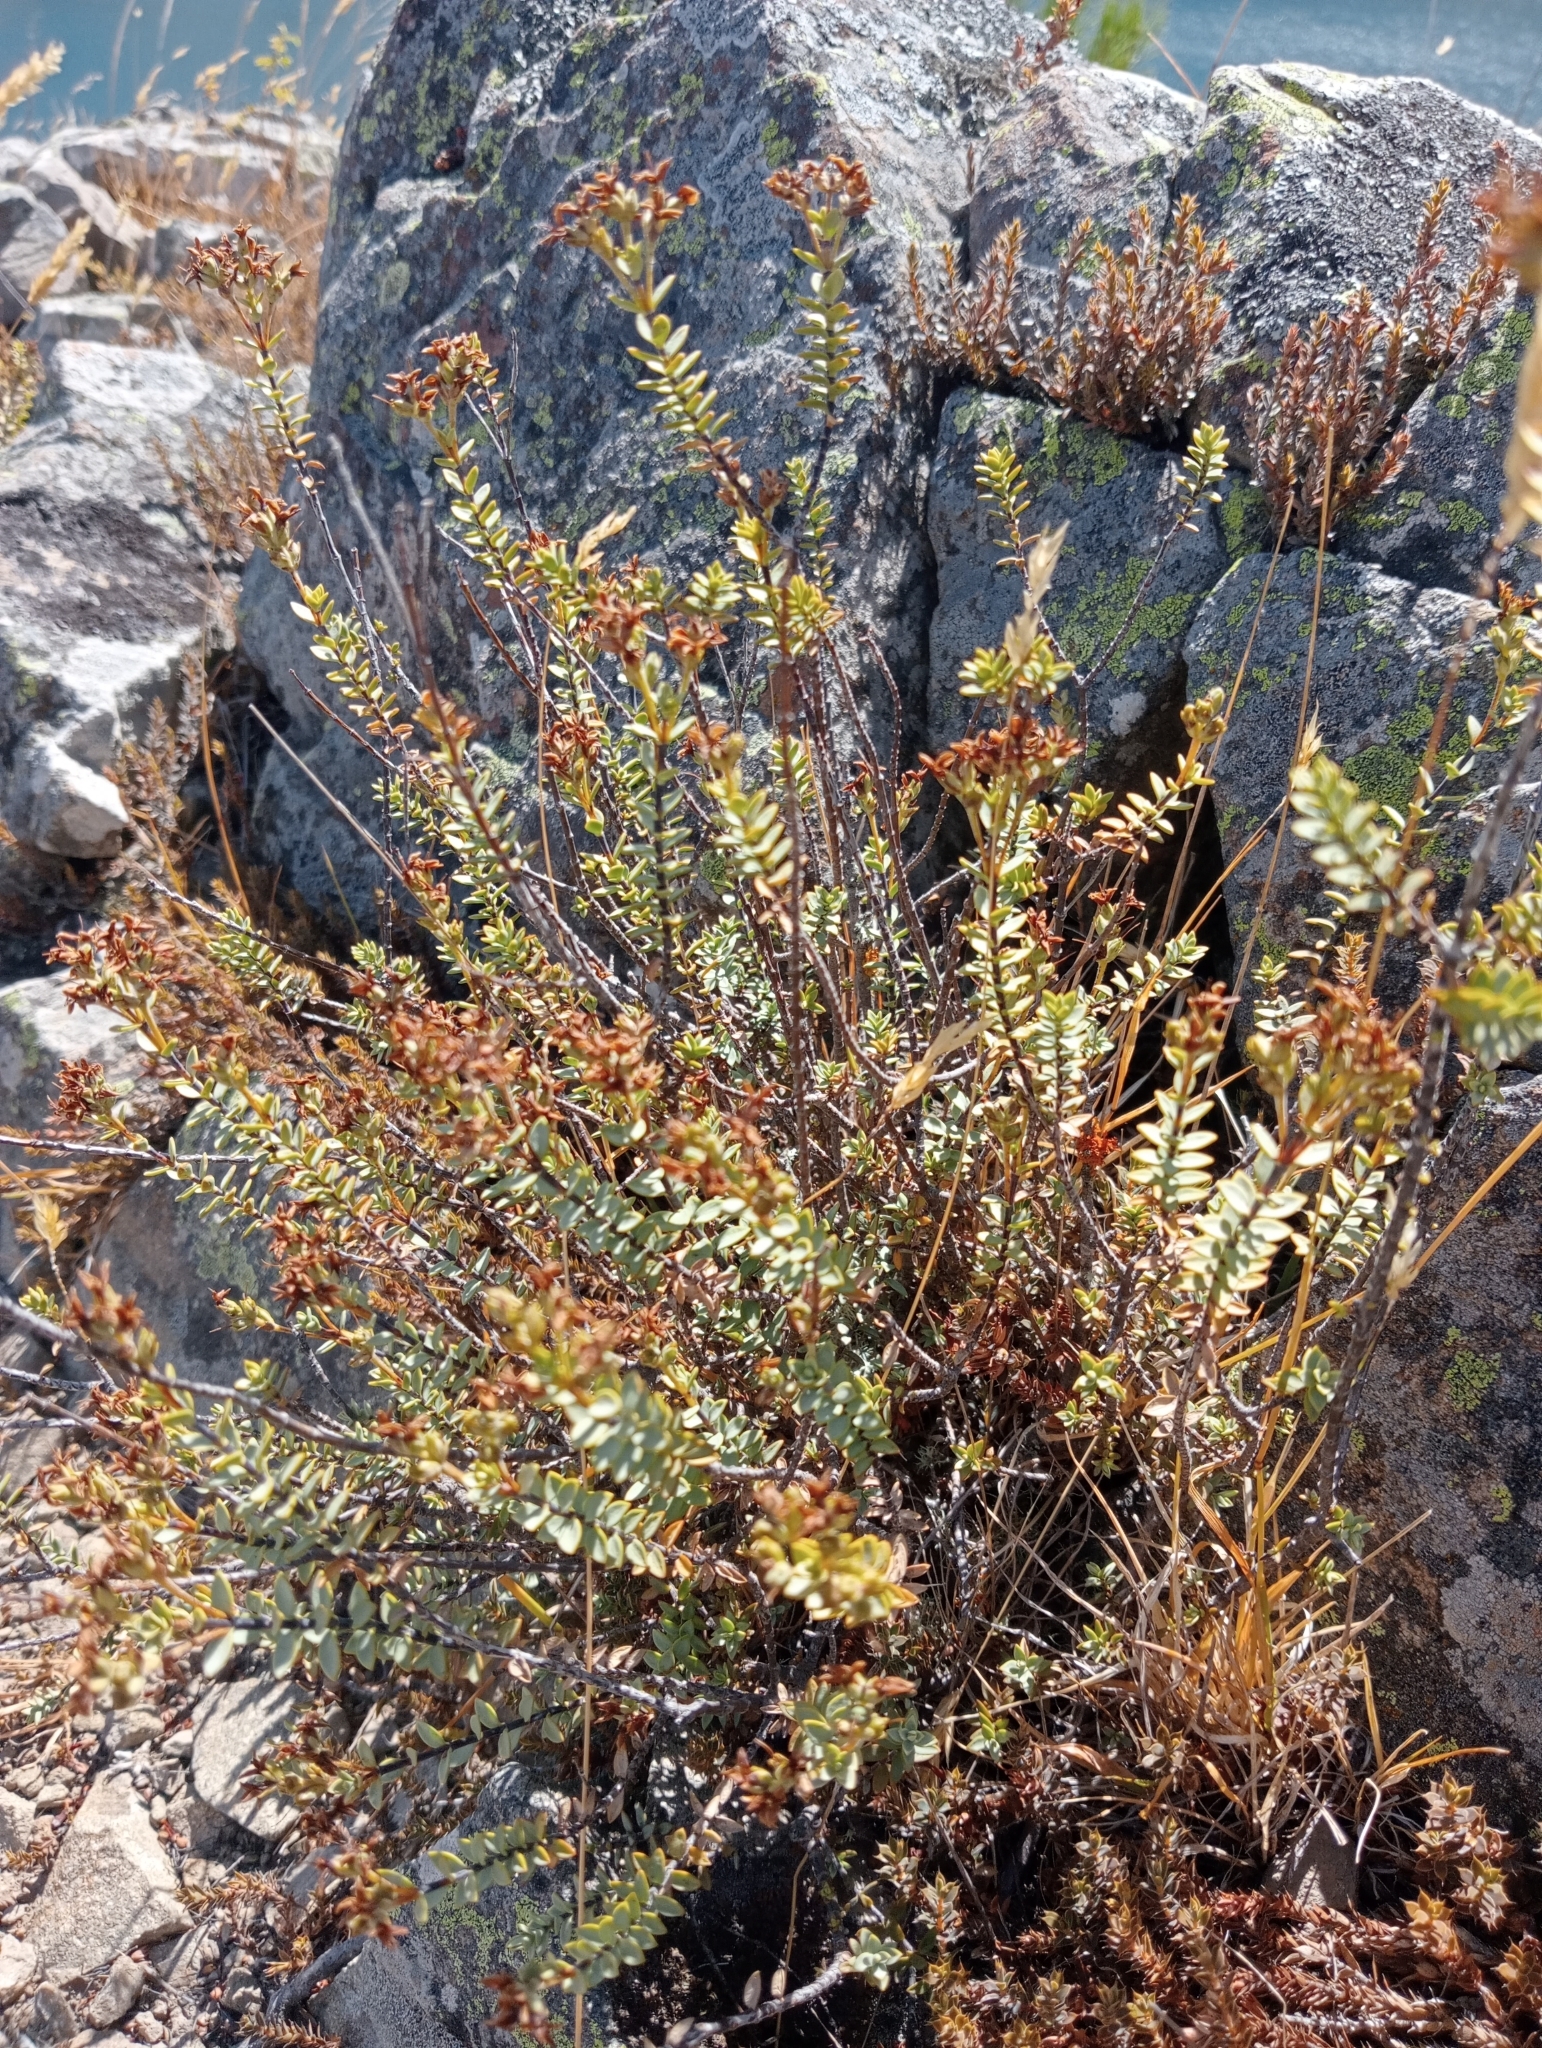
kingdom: Plantae
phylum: Tracheophyta
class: Magnoliopsida
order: Lamiales
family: Plantaginaceae
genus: Veronica
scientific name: Veronica pimeleoides
